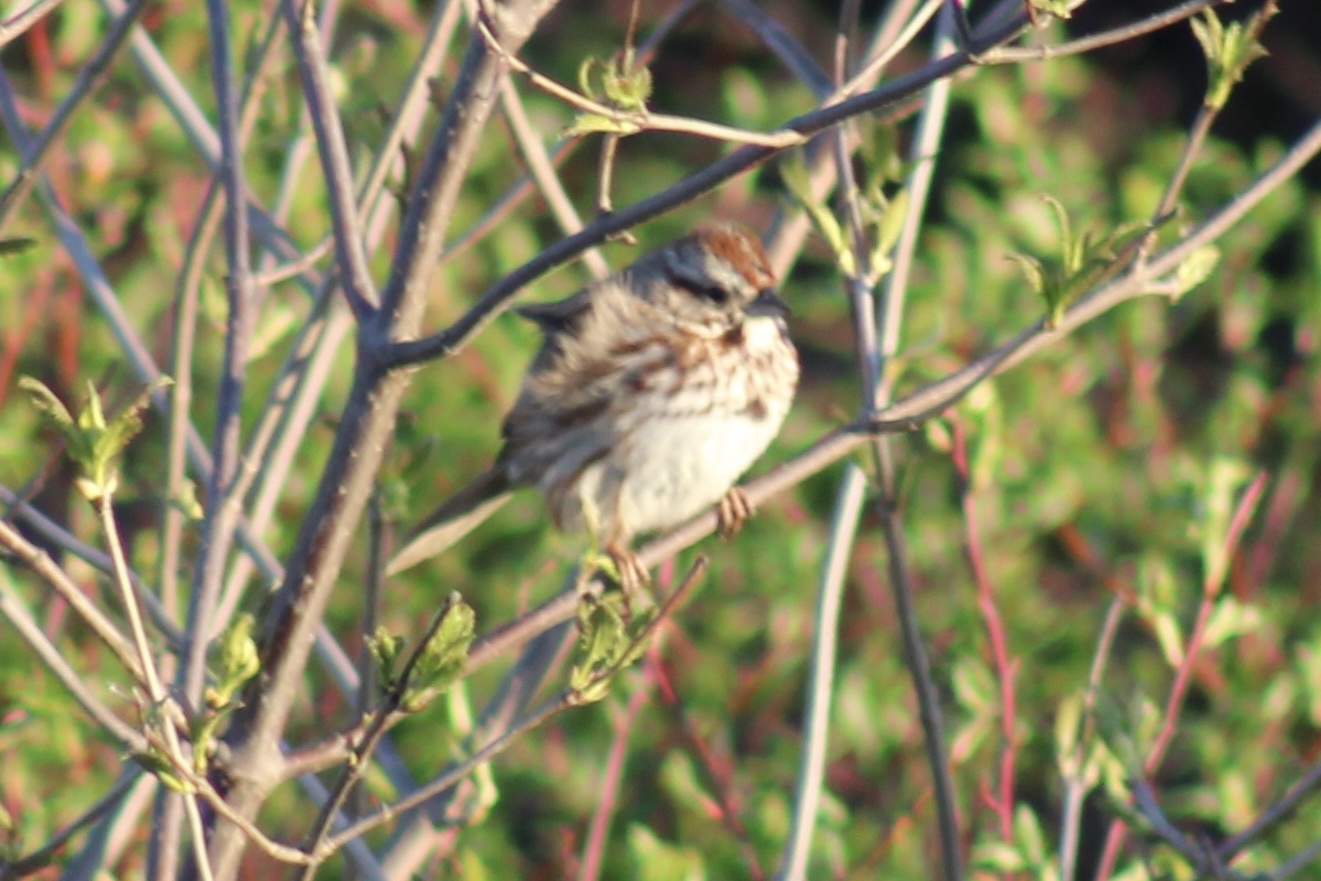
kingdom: Animalia
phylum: Chordata
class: Aves
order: Passeriformes
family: Passerellidae
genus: Melospiza
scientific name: Melospiza melodia
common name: Song sparrow
